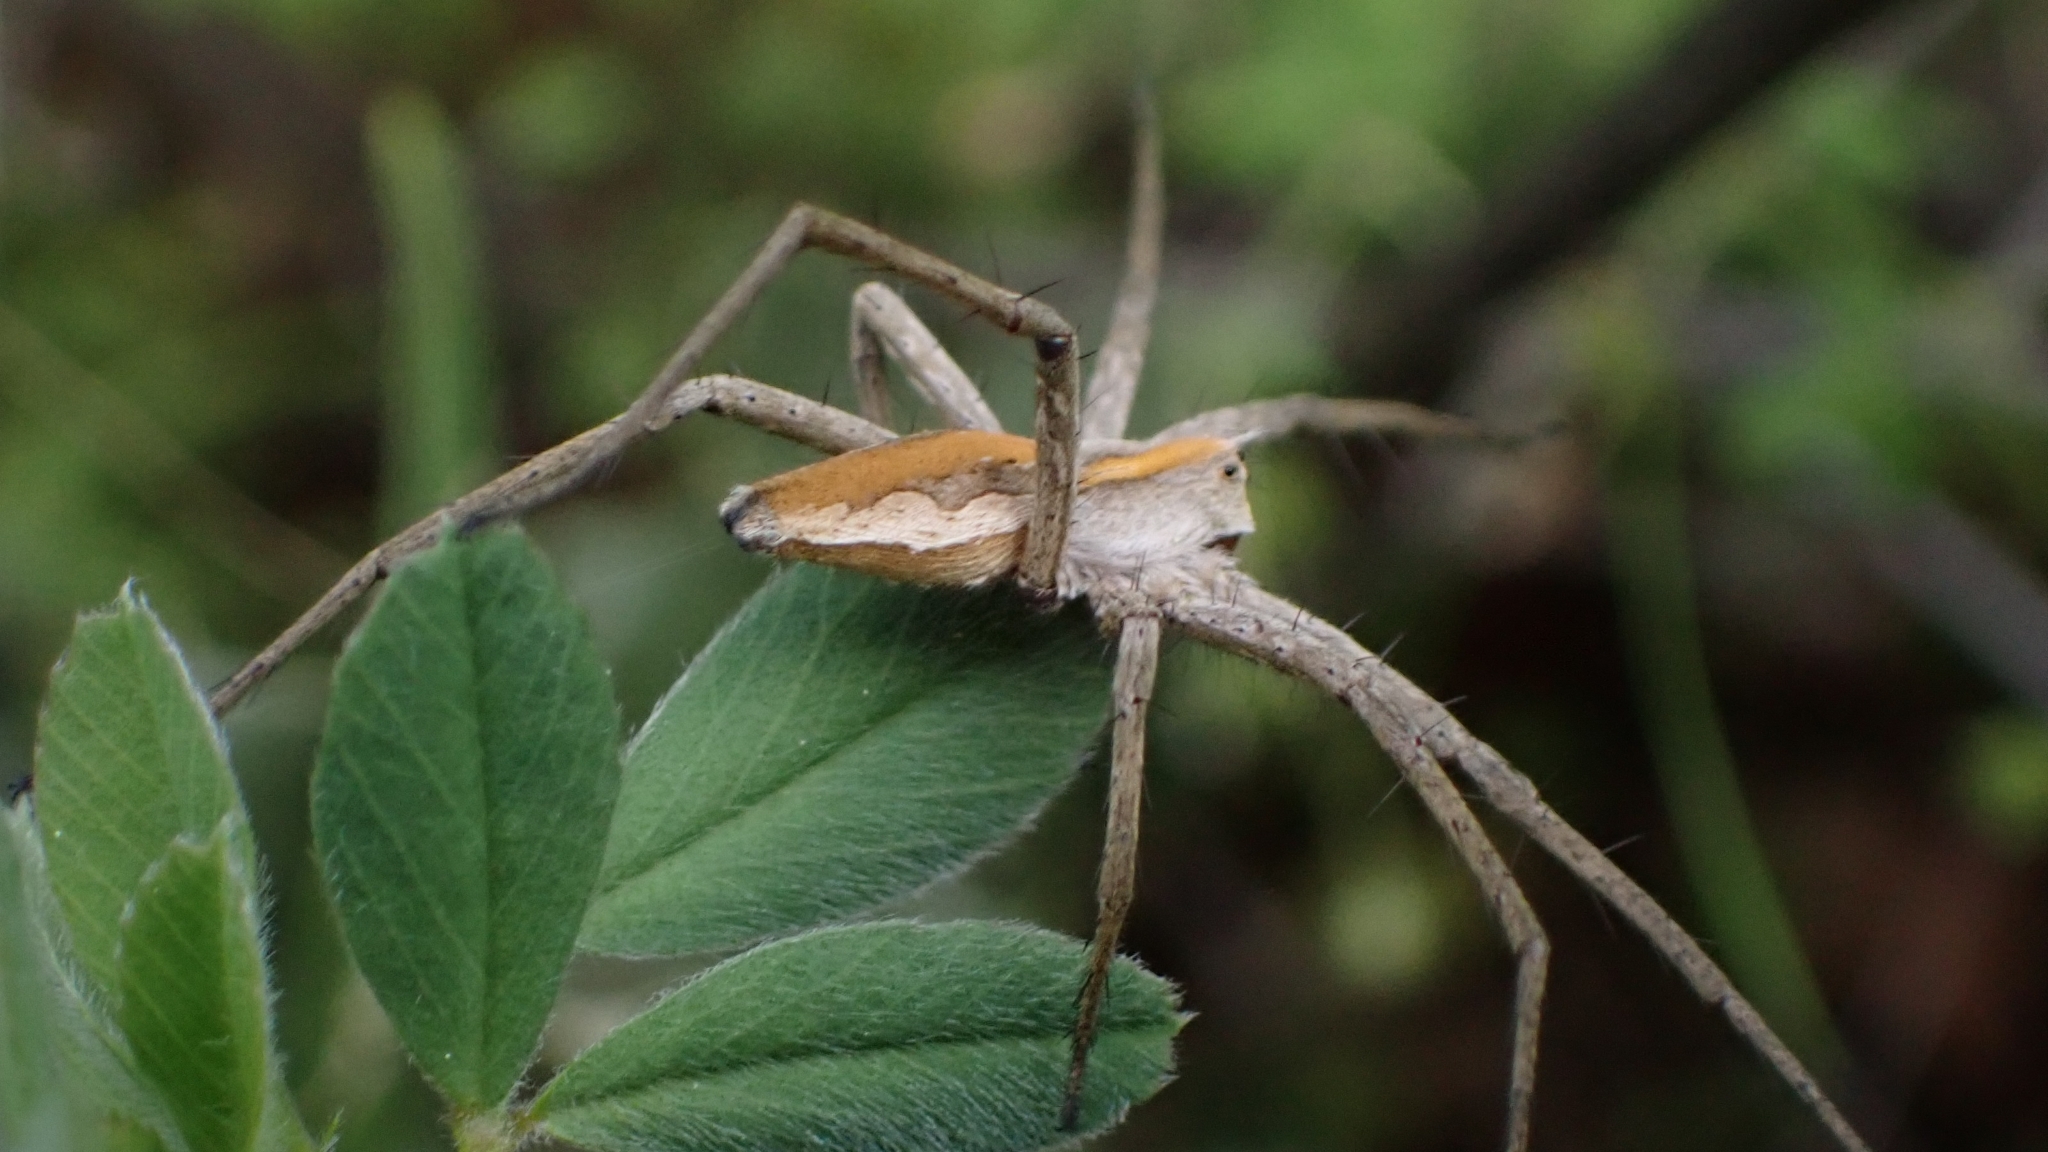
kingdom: Animalia
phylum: Arthropoda
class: Arachnida
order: Araneae
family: Pisauridae
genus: Pisaura
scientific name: Pisaura mirabilis
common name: Tent spider
